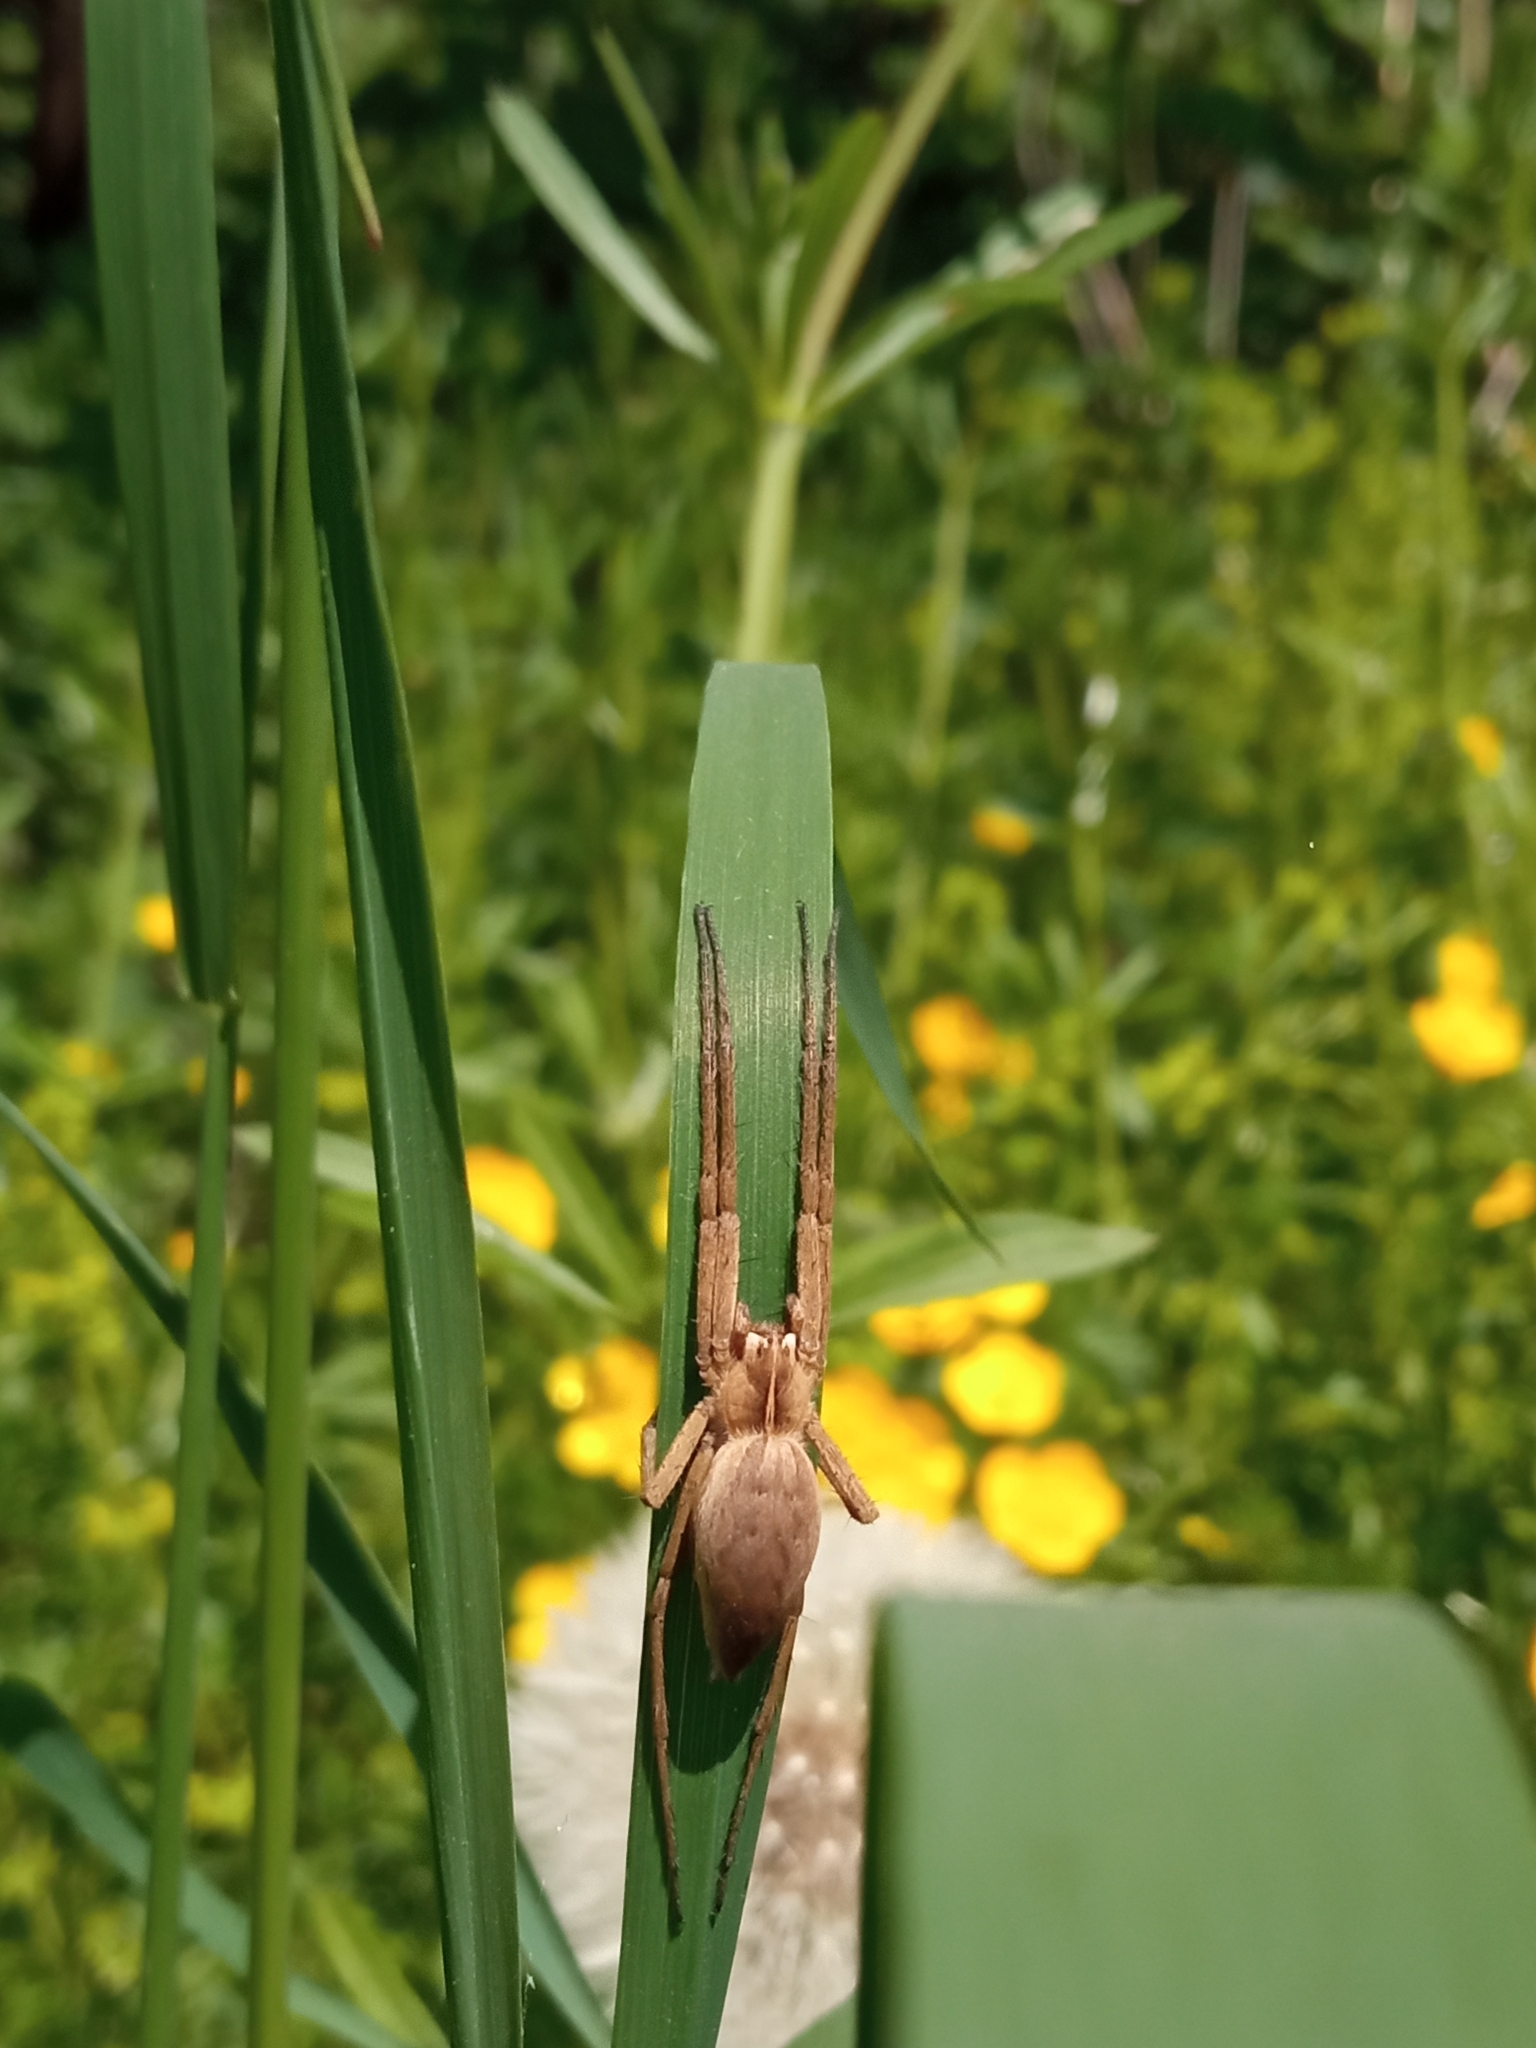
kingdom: Animalia
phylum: Arthropoda
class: Arachnida
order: Araneae
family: Pisauridae
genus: Pisaura
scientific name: Pisaura mirabilis
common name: Tent spider
